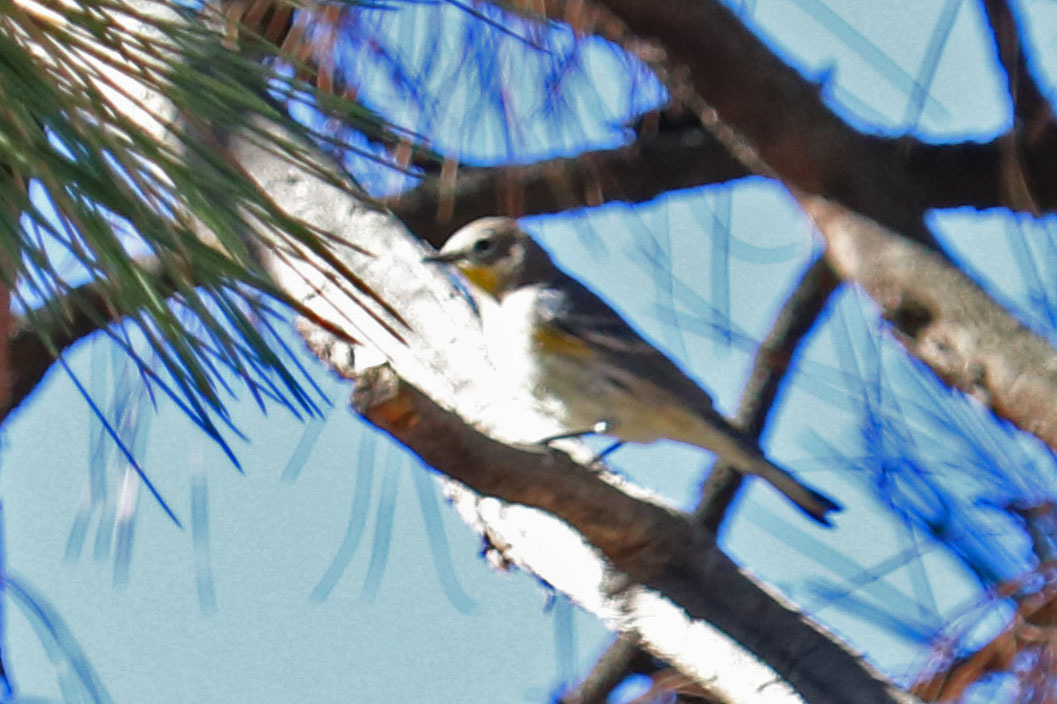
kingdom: Animalia
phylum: Chordata
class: Aves
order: Passeriformes
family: Parulidae
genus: Setophaga
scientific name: Setophaga coronata
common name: Myrtle warbler
